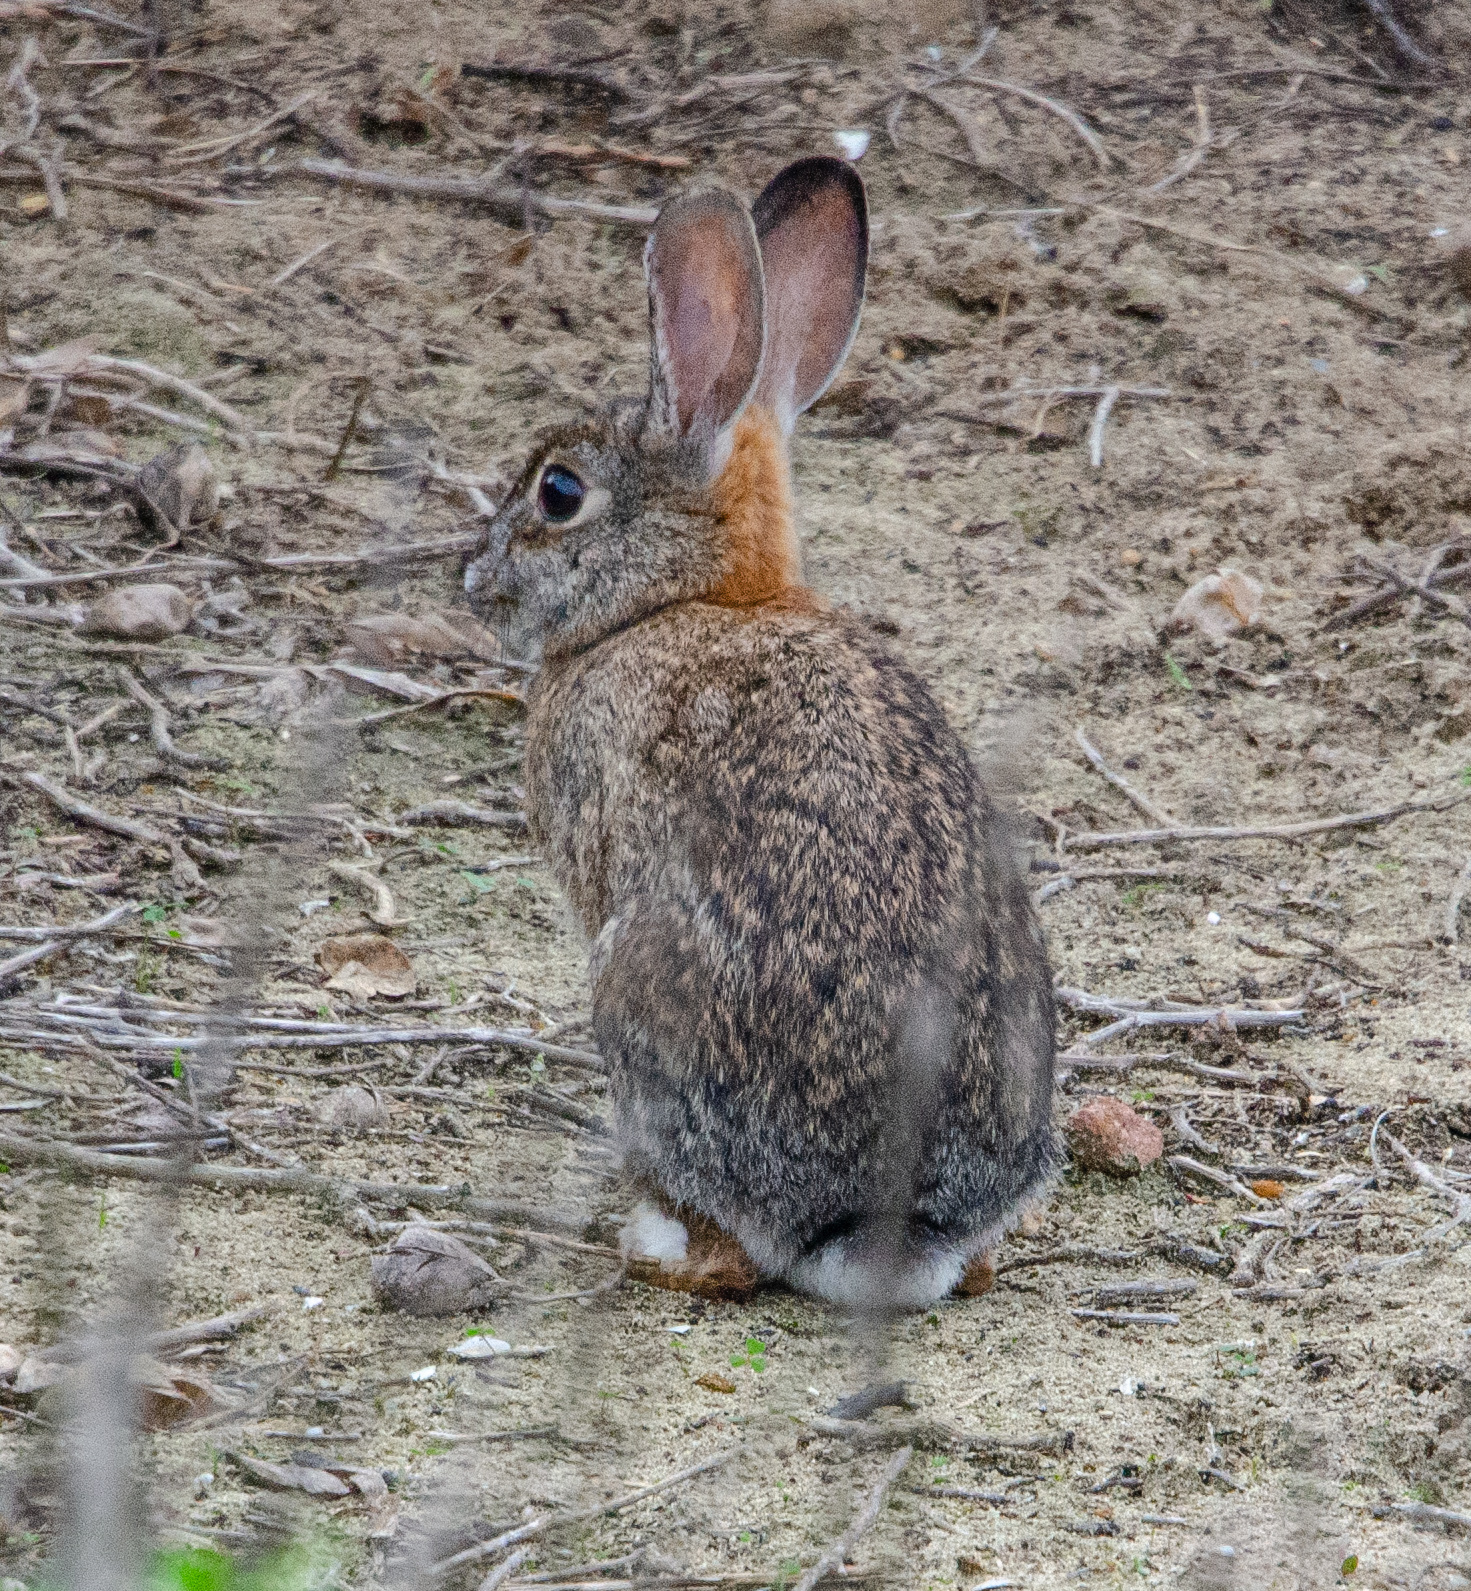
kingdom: Animalia
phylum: Chordata
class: Mammalia
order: Lagomorpha
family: Leporidae
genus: Sylvilagus
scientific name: Sylvilagus audubonii
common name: Desert cottontail
